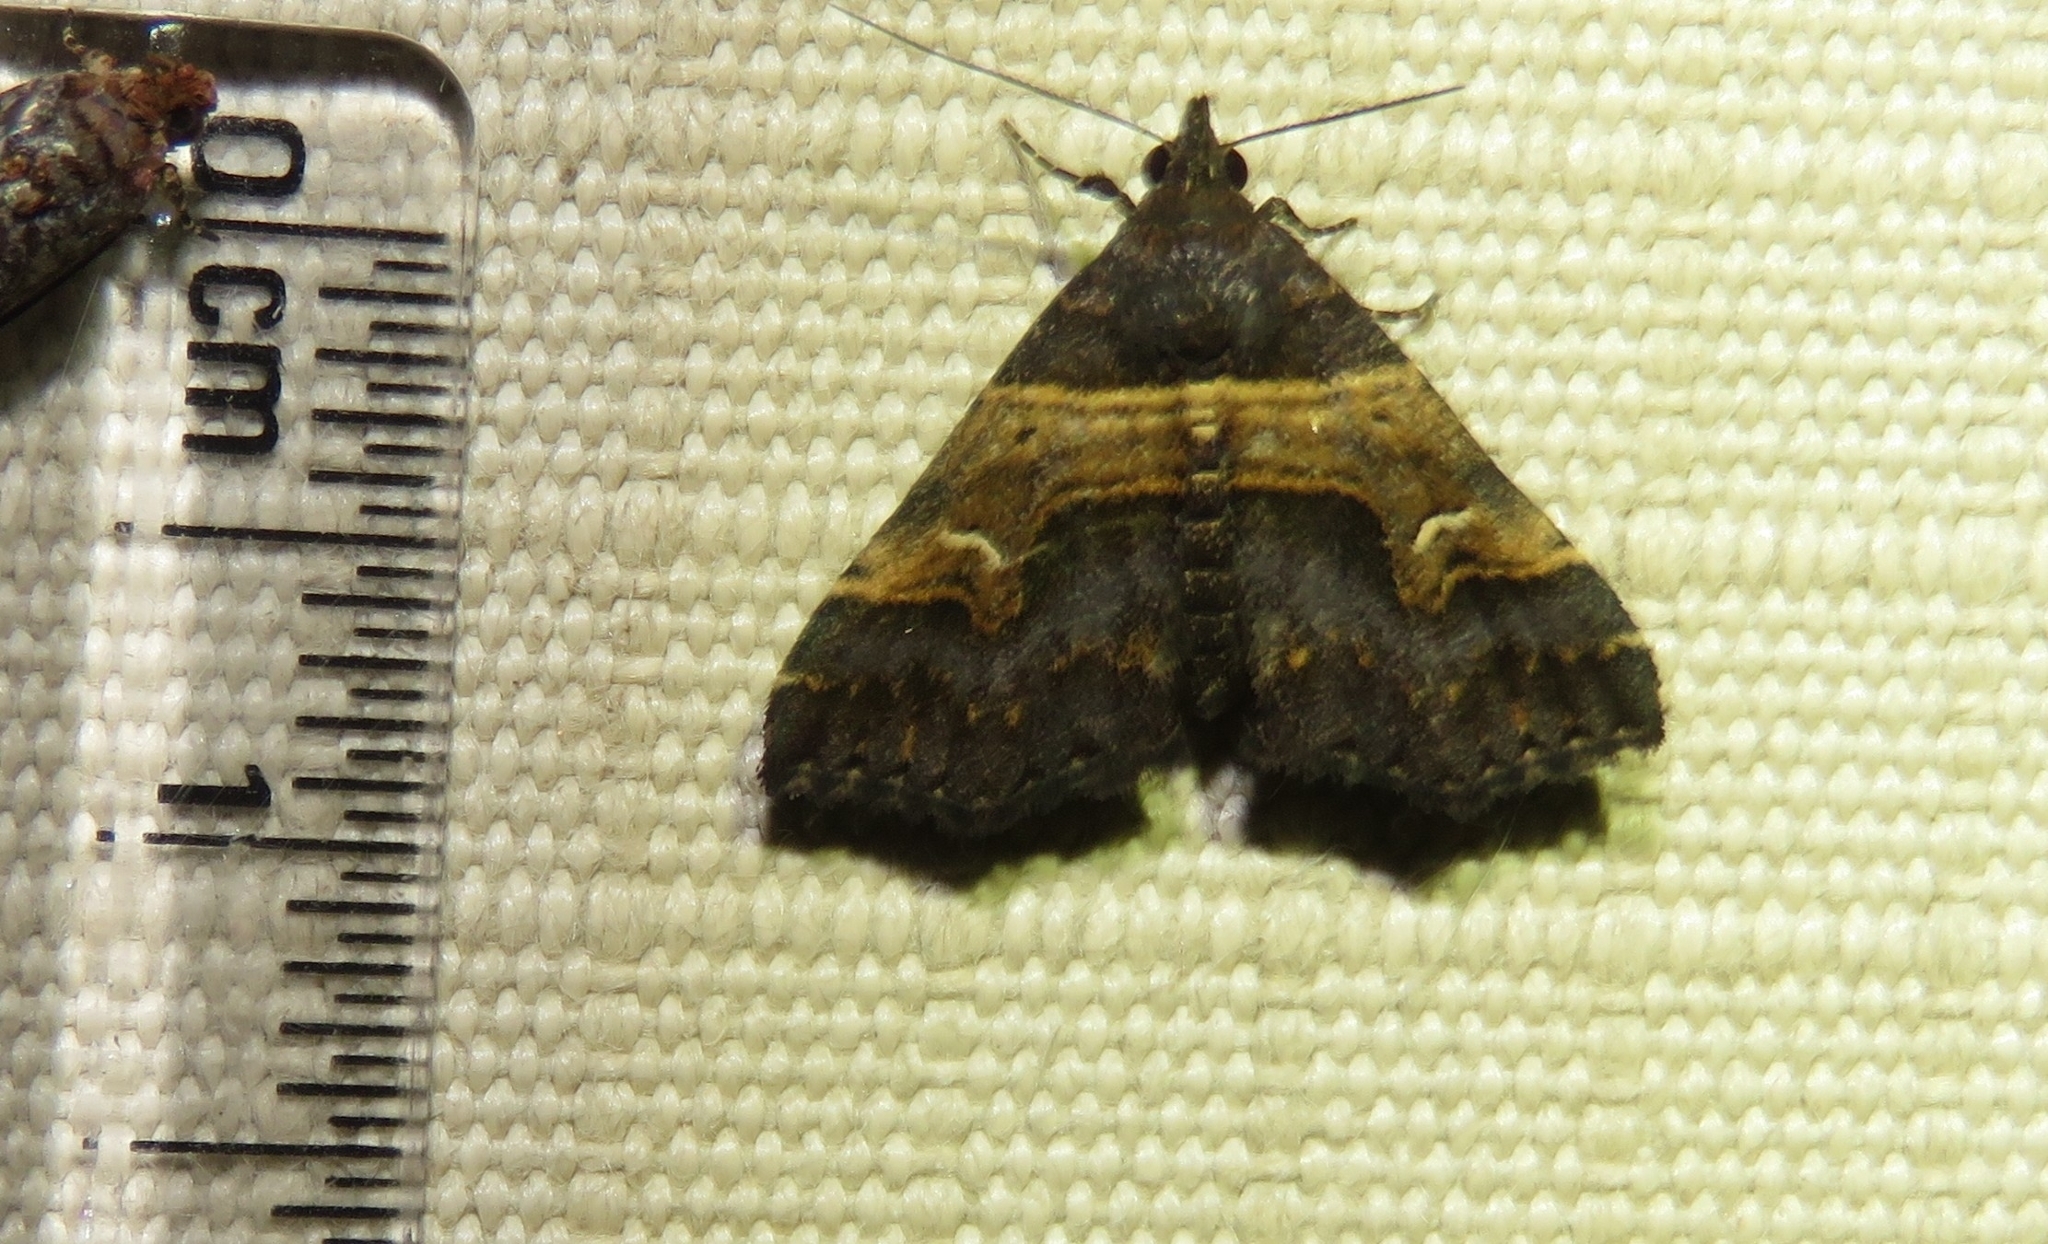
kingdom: Animalia
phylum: Arthropoda
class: Insecta
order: Lepidoptera
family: Erebidae
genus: Bertula
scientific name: Bertula abjudicalis
